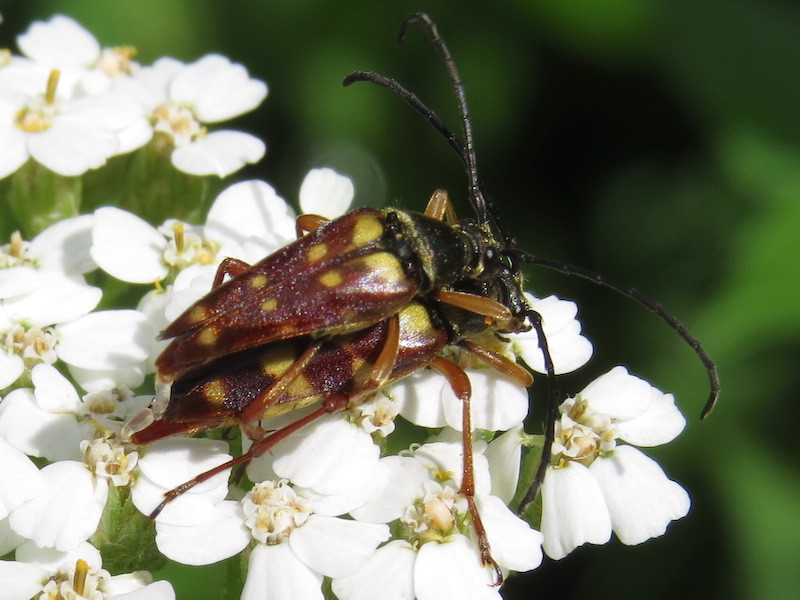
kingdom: Animalia
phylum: Arthropoda
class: Insecta
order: Coleoptera
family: Cerambycidae
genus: Typocerus
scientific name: Typocerus velutinus
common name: Banded longhorn beetle
